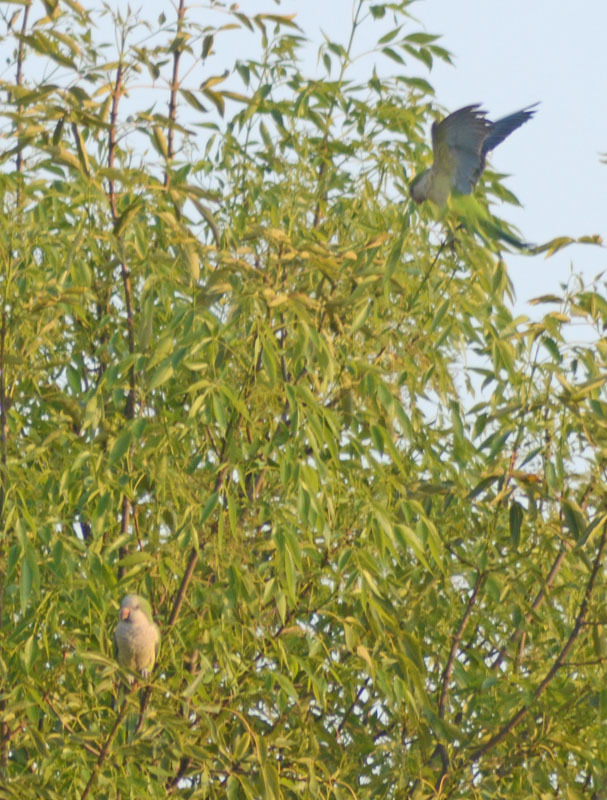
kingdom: Animalia
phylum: Chordata
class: Aves
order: Psittaciformes
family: Psittacidae
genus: Myiopsitta
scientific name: Myiopsitta monachus
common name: Monk parakeet
